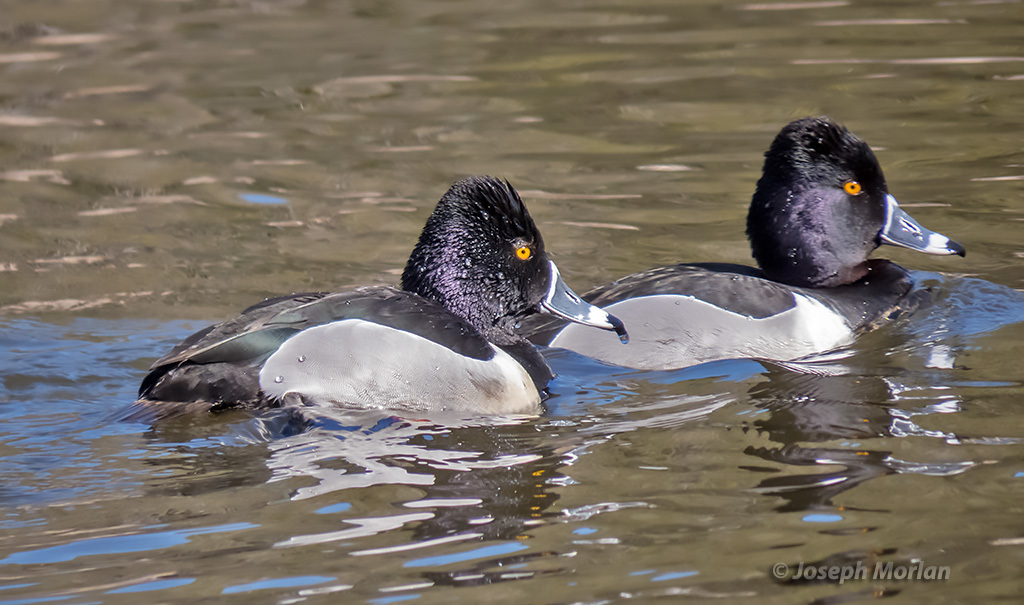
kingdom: Animalia
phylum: Chordata
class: Aves
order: Anseriformes
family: Anatidae
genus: Aythya
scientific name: Aythya collaris
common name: Ring-necked duck
